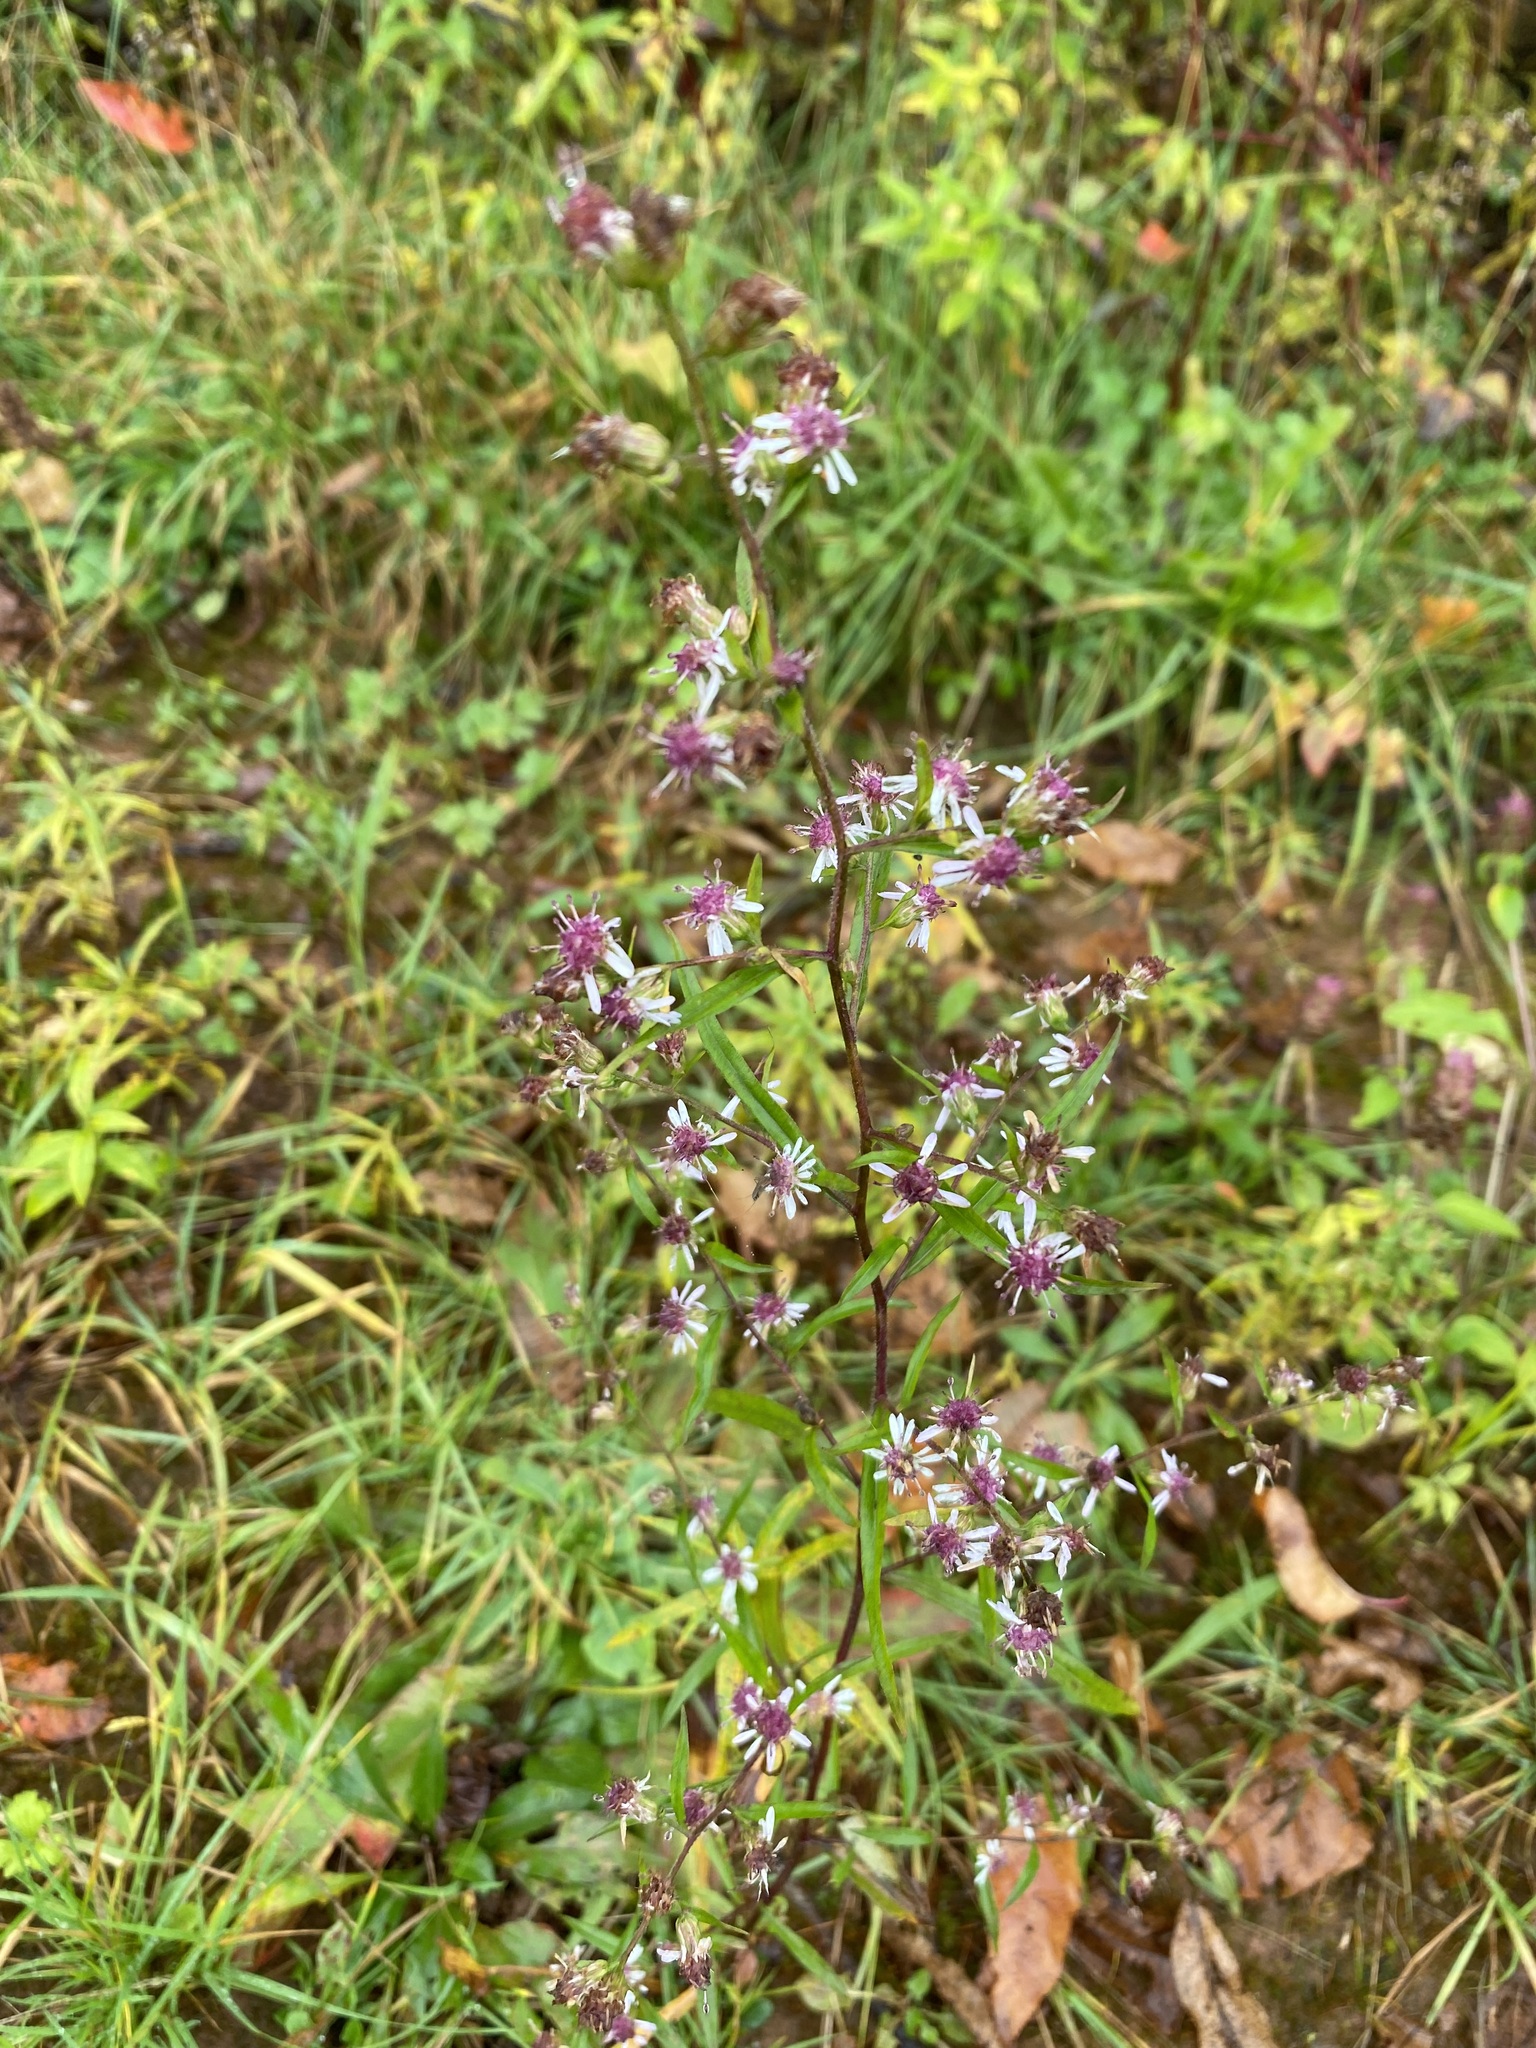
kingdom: Plantae
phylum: Tracheophyta
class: Magnoliopsida
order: Asterales
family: Asteraceae
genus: Symphyotrichum
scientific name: Symphyotrichum lateriflorum
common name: Calico aster
